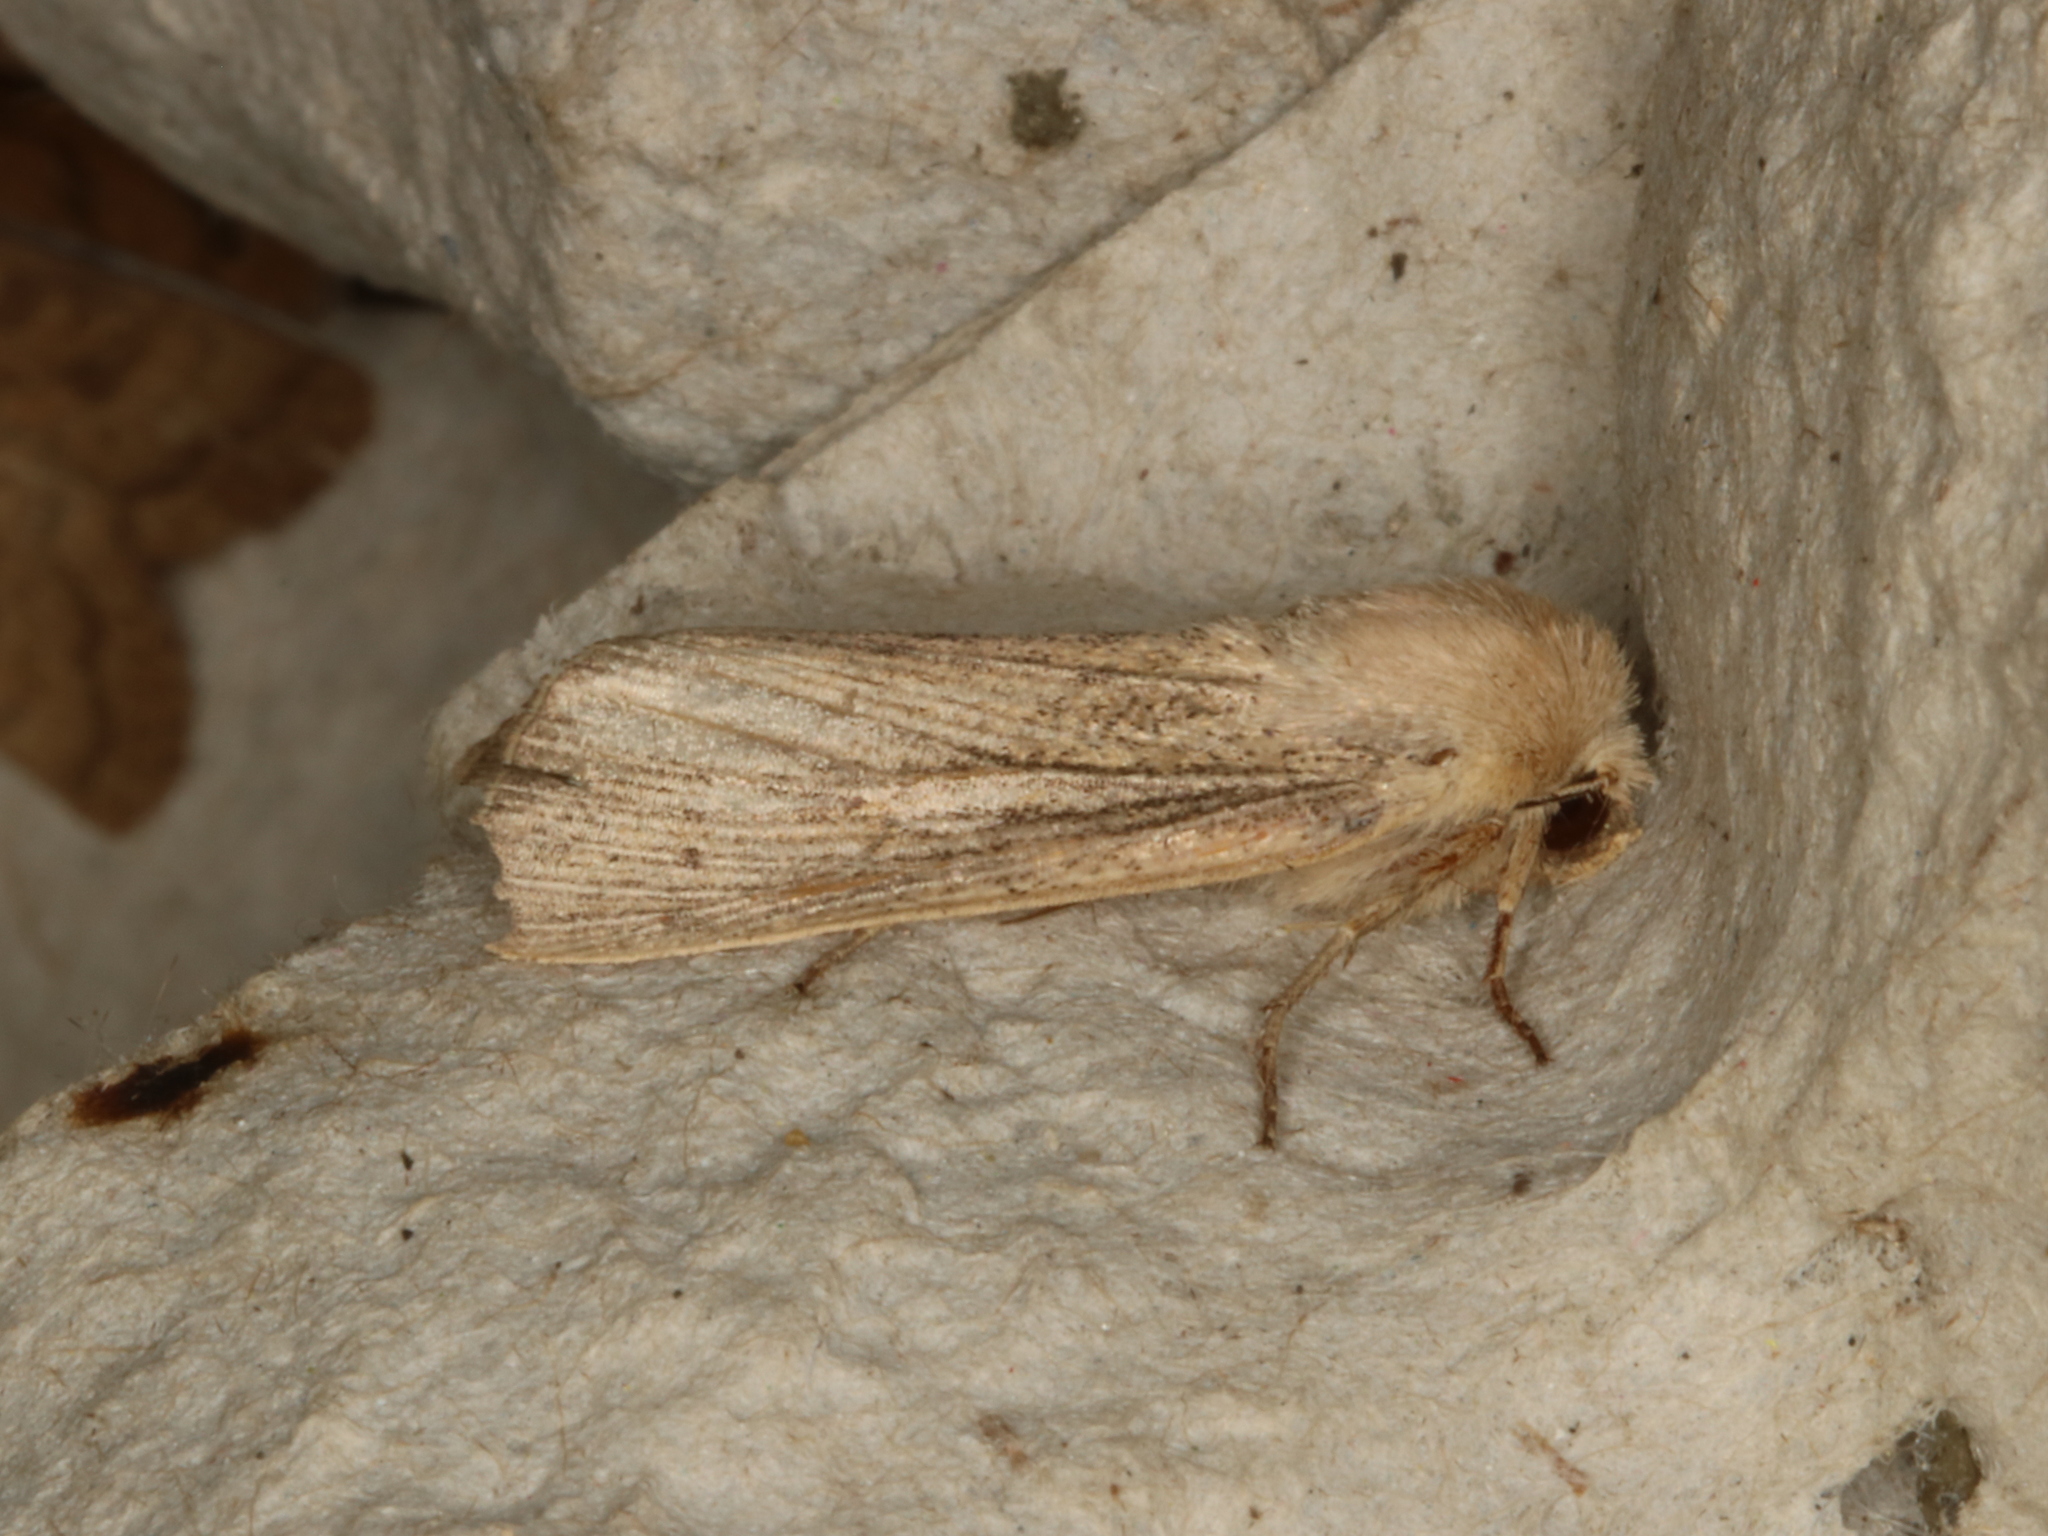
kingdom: Animalia
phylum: Arthropoda
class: Insecta
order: Lepidoptera
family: Noctuidae
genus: Leucania
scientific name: Leucania obsoleta
